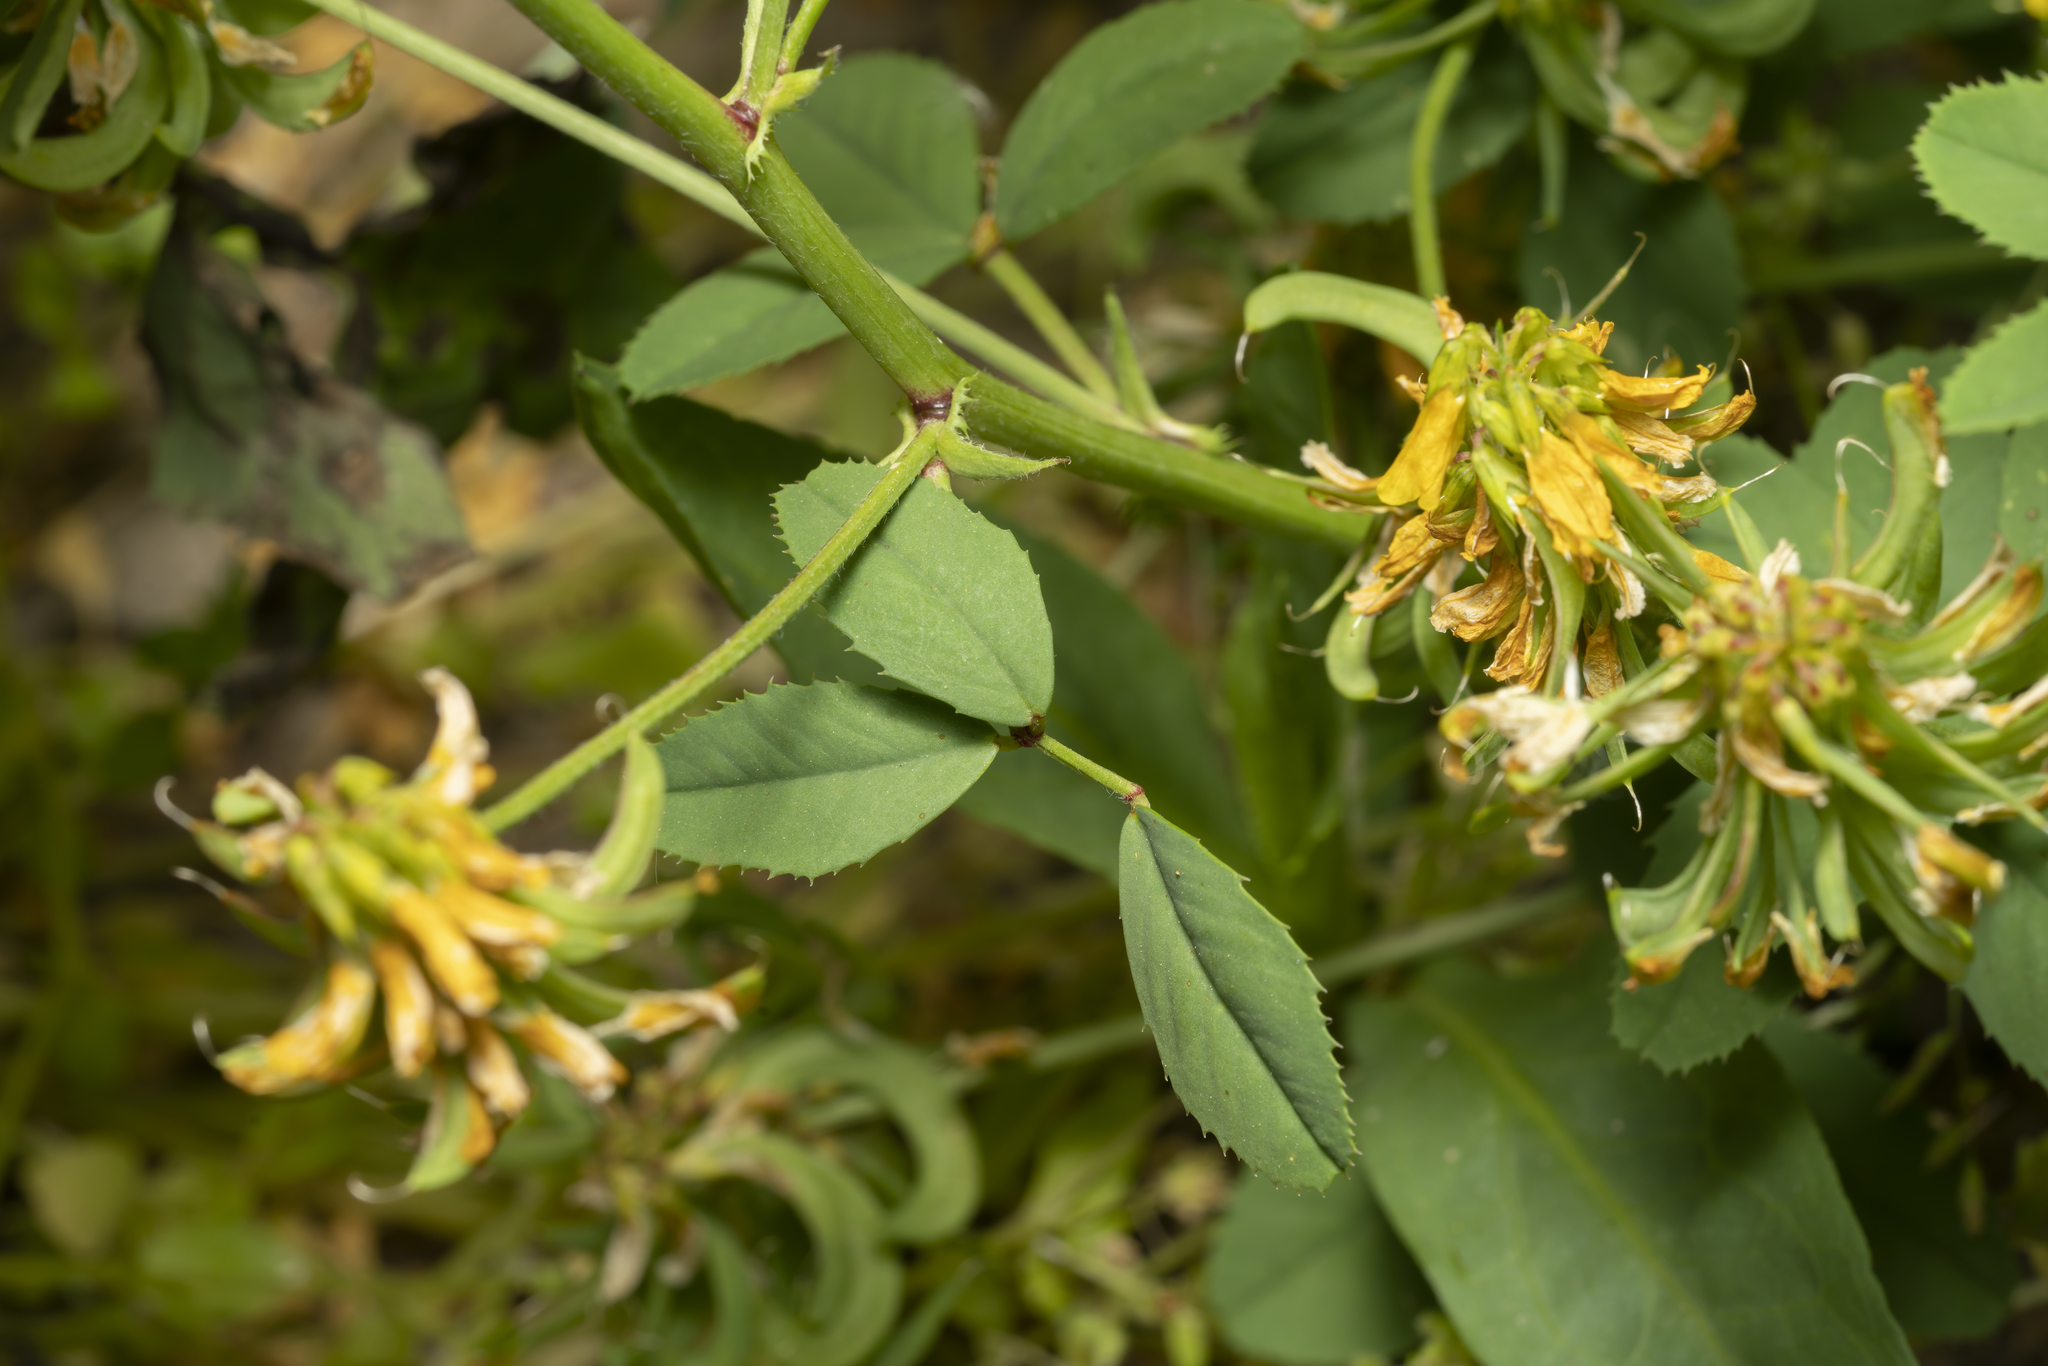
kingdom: Plantae
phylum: Tracheophyta
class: Magnoliopsida
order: Fabales
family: Fabaceae
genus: Trigonella
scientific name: Trigonella corniculata
